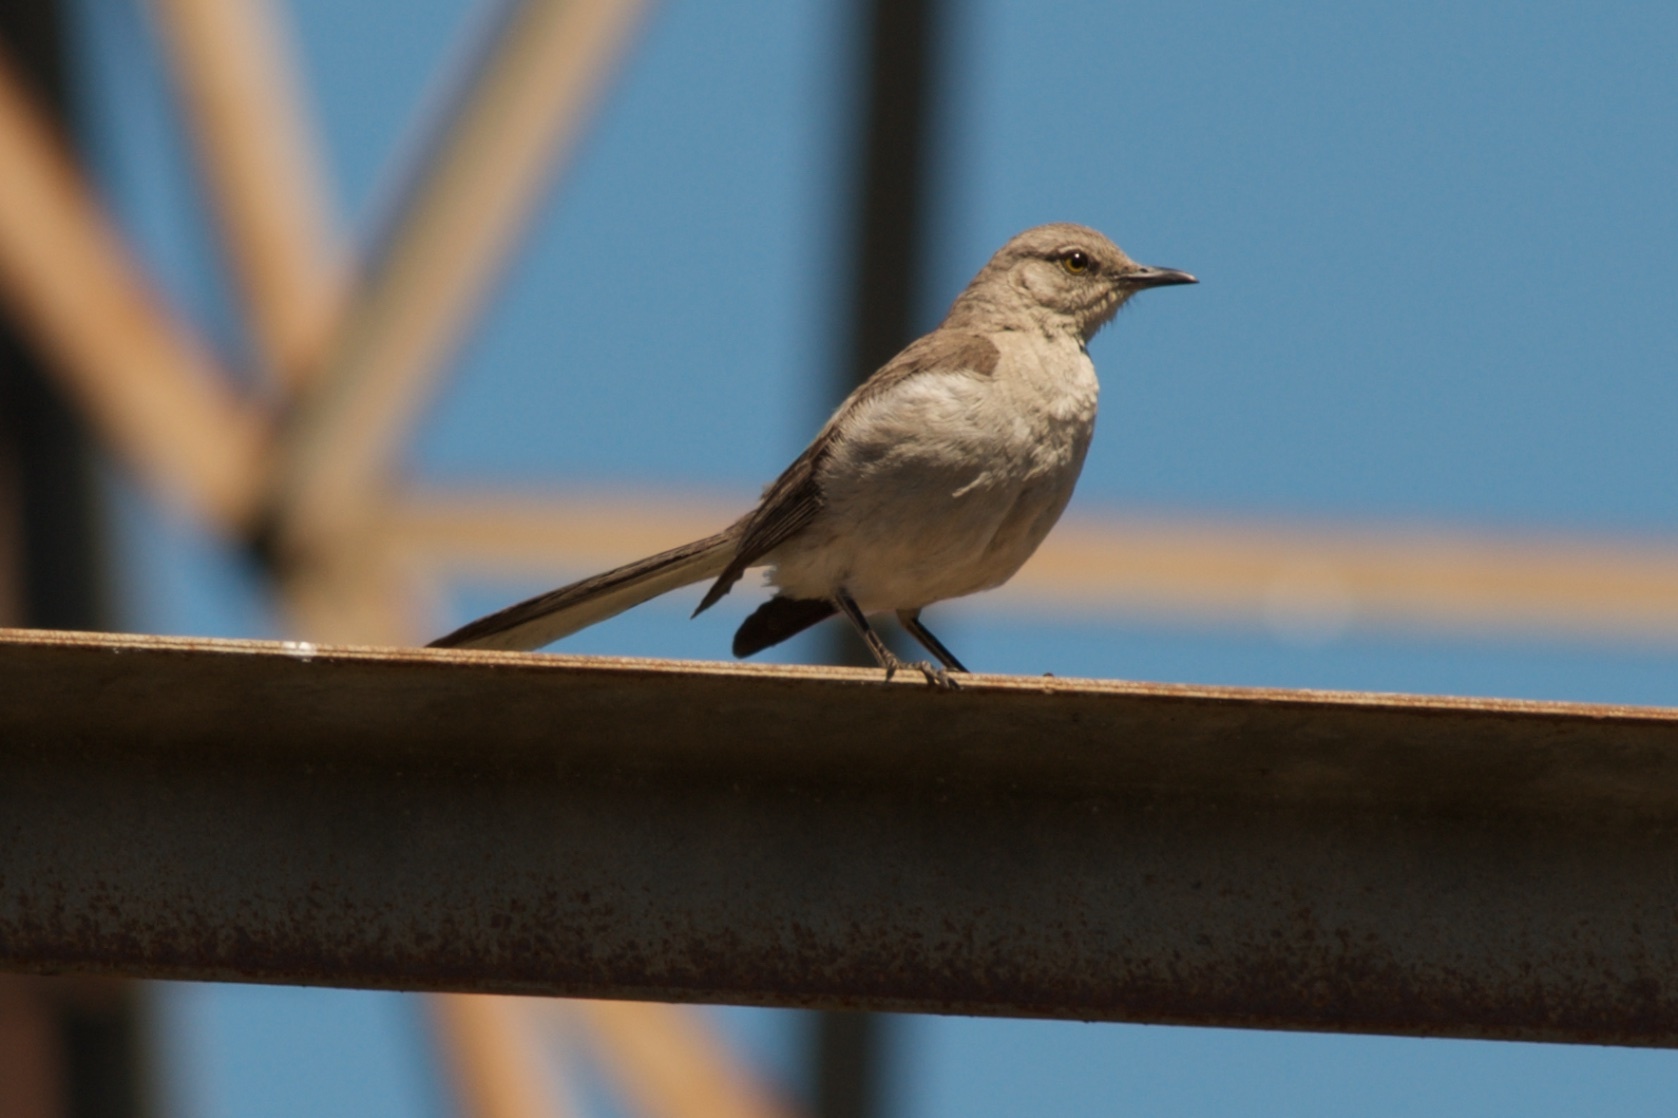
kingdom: Animalia
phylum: Chordata
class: Aves
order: Passeriformes
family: Mimidae
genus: Mimus
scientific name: Mimus polyglottos
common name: Northern mockingbird
